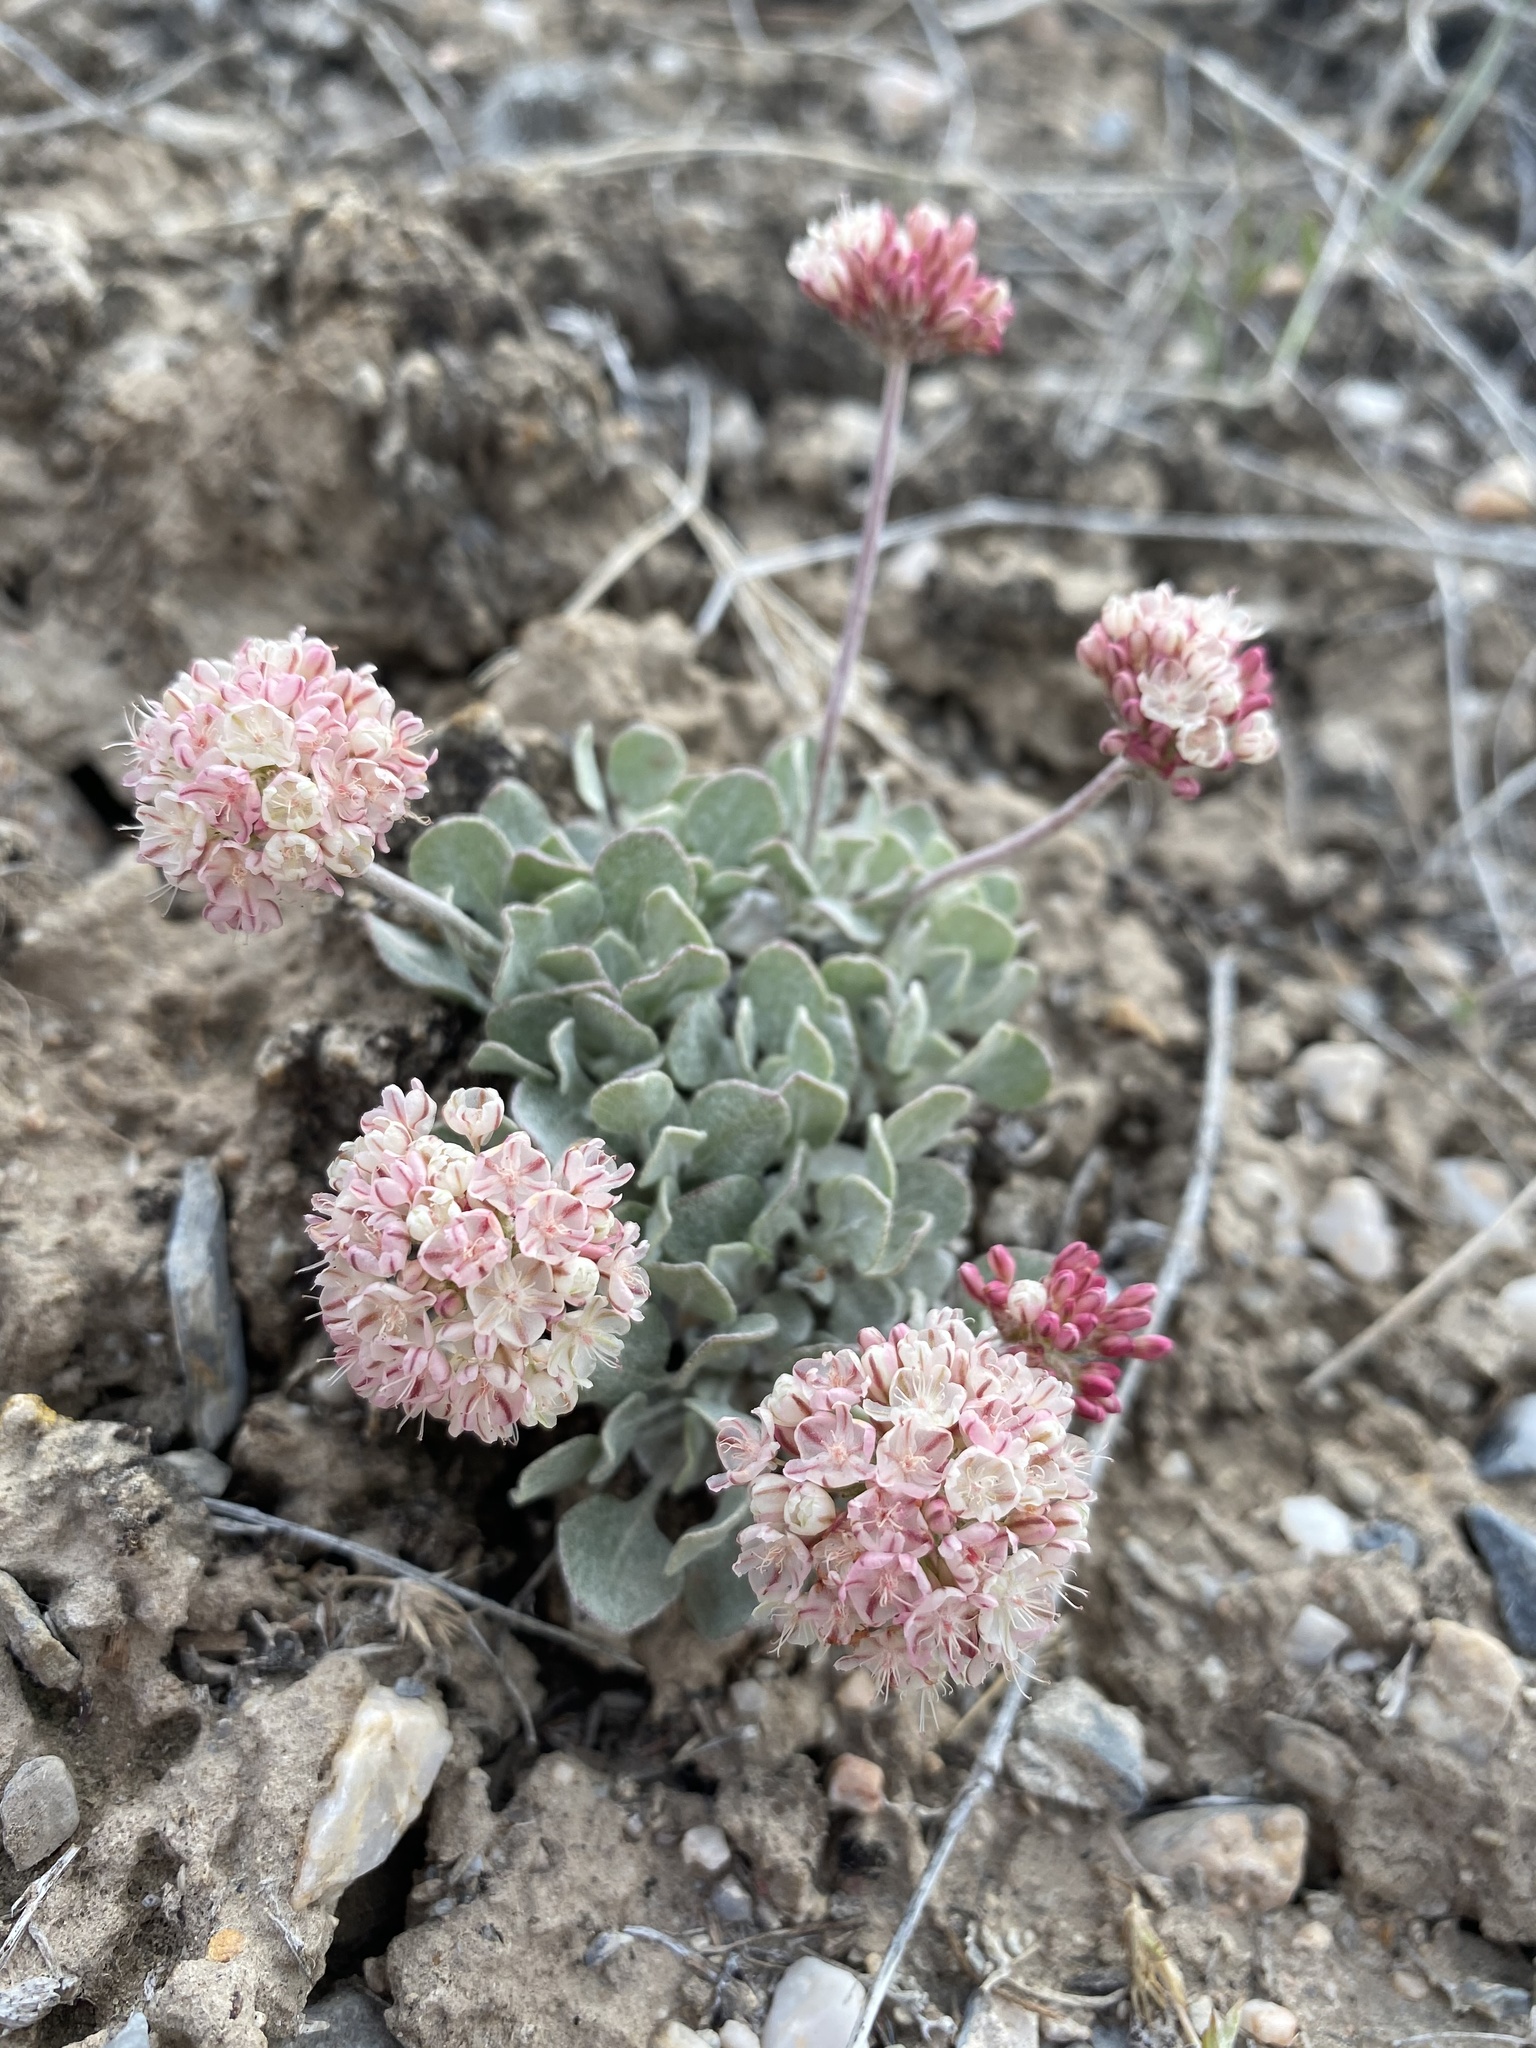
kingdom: Plantae
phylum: Tracheophyta
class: Magnoliopsida
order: Caryophyllales
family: Polygonaceae
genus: Eriogonum
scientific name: Eriogonum ovalifolium
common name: Cushion buckwheat
